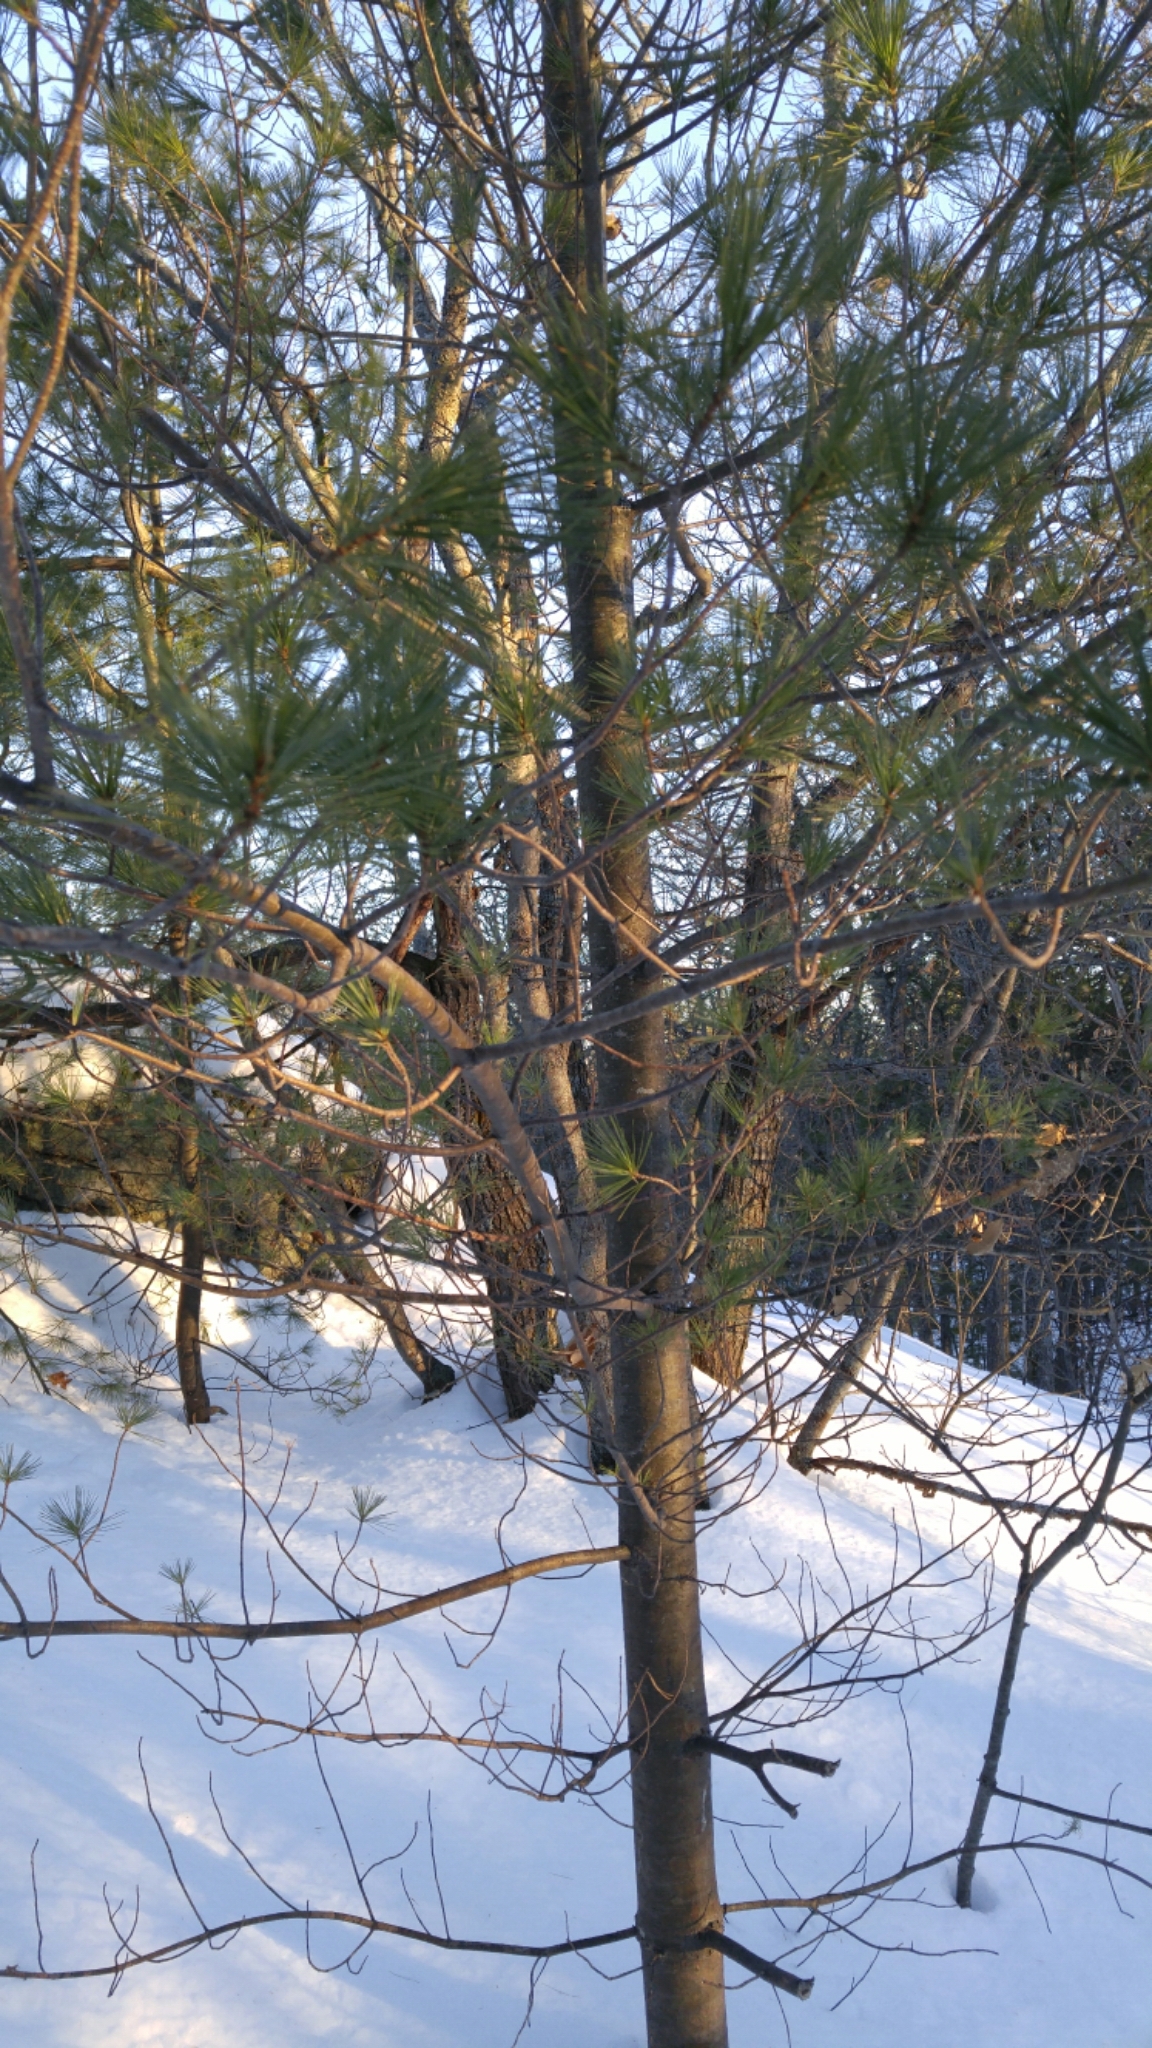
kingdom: Plantae
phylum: Tracheophyta
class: Pinopsida
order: Pinales
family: Pinaceae
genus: Pinus
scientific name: Pinus strobus
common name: Weymouth pine
